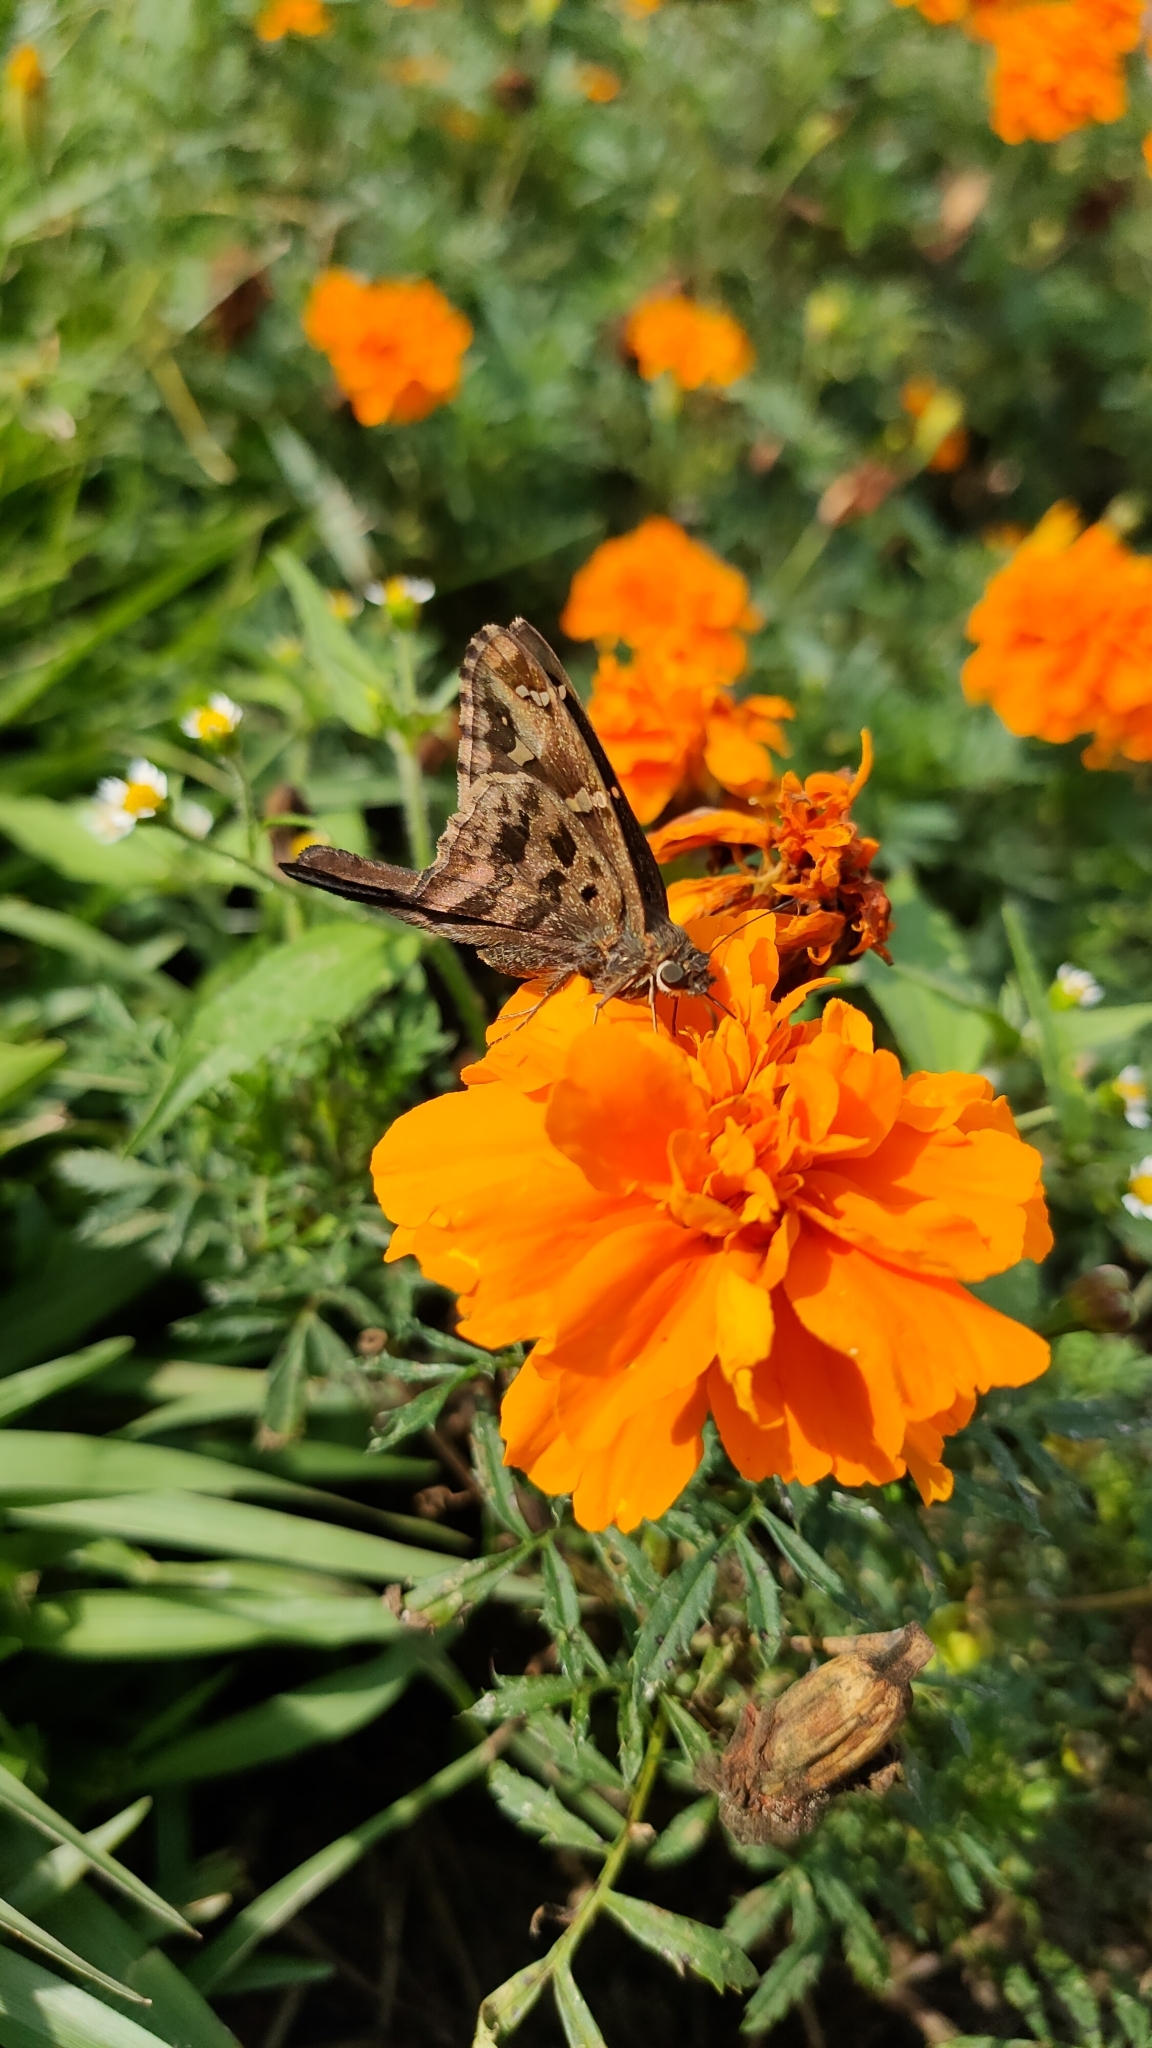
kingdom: Animalia
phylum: Arthropoda
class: Insecta
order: Lepidoptera
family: Hesperiidae
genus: Thorybes
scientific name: Thorybes
